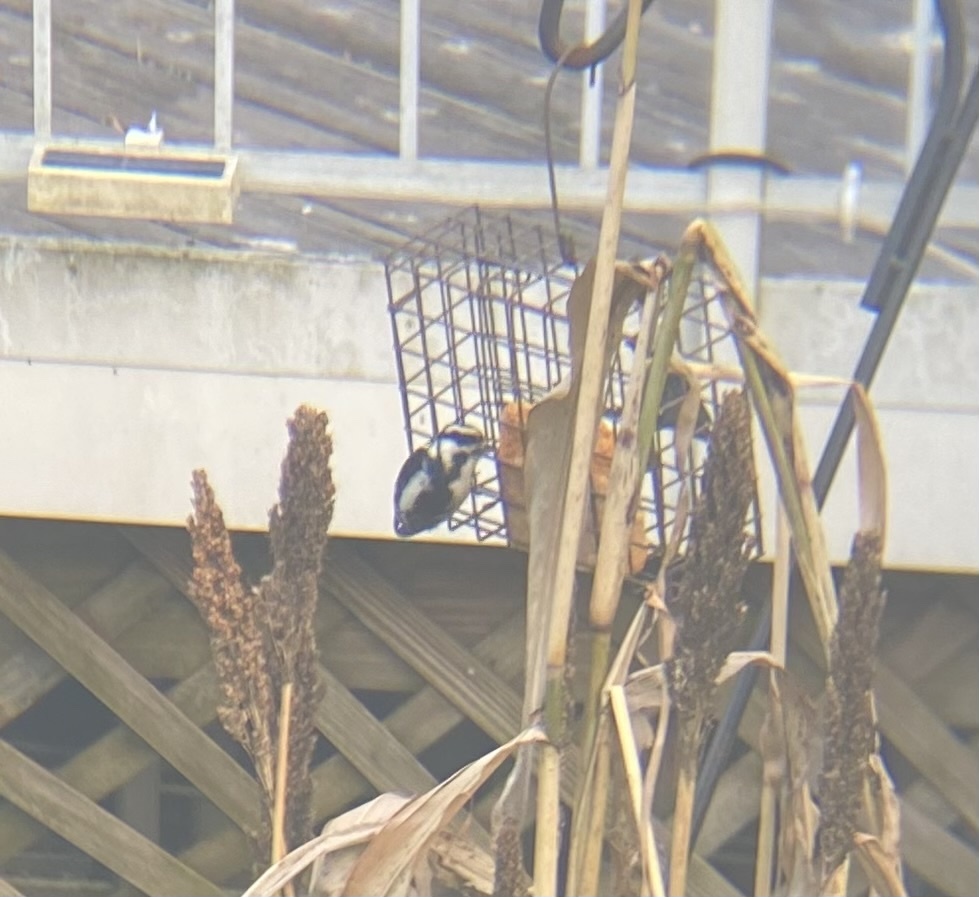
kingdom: Animalia
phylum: Chordata
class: Aves
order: Piciformes
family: Picidae
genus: Dryobates
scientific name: Dryobates pubescens
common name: Downy woodpecker
